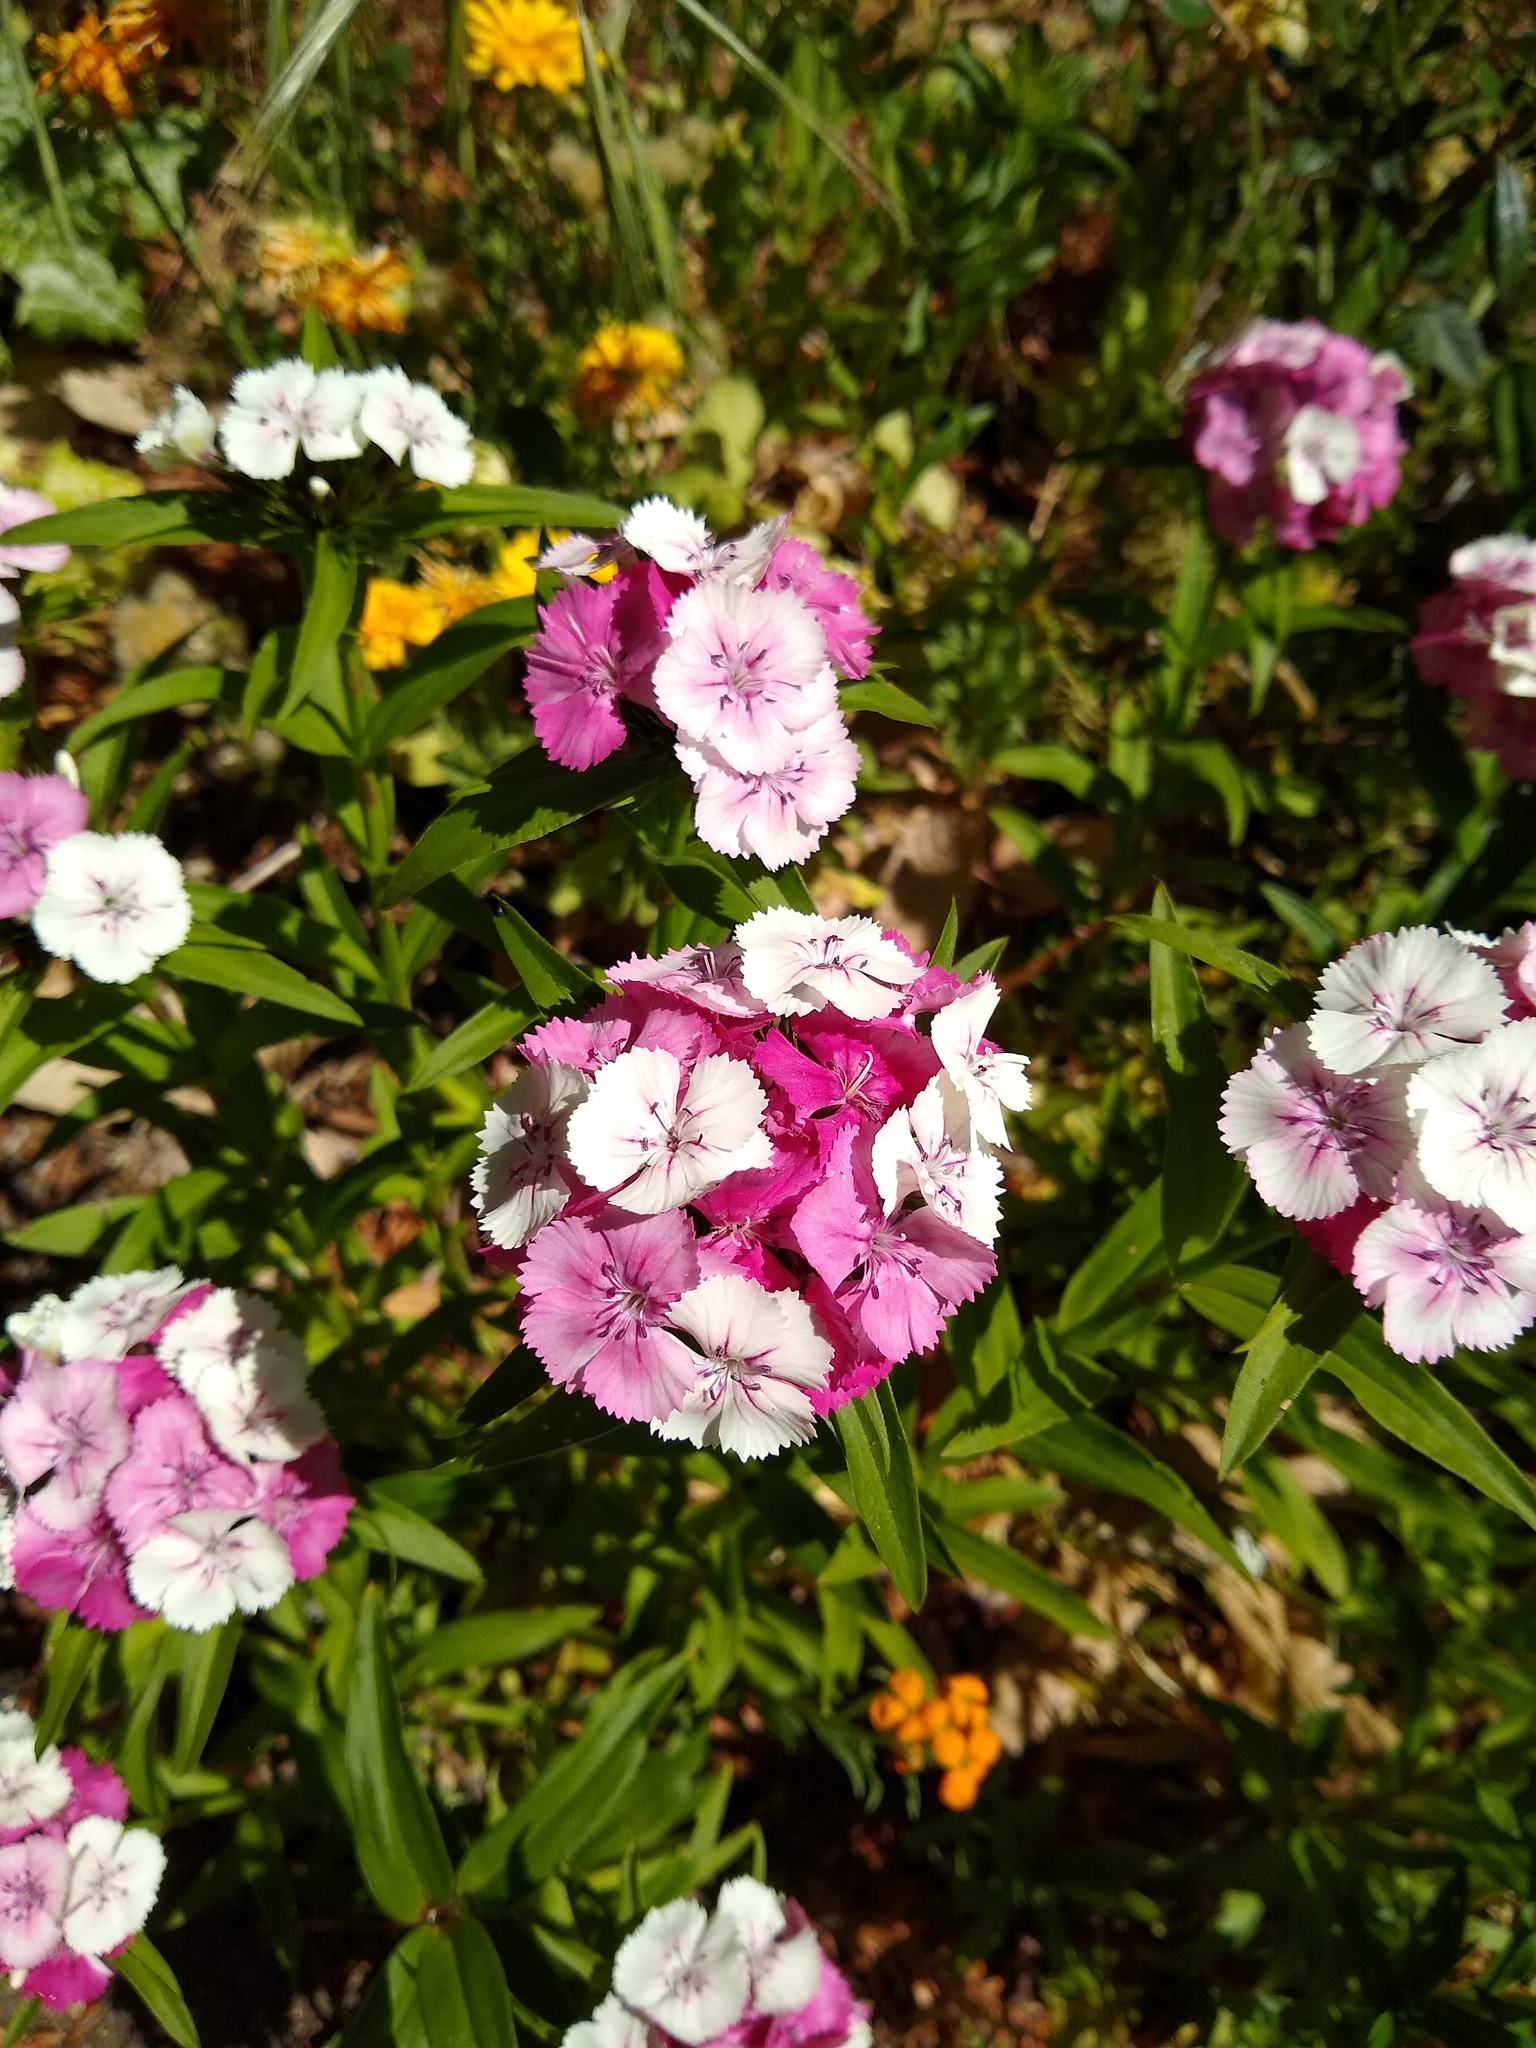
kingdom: Plantae
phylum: Tracheophyta
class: Magnoliopsida
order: Caryophyllales
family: Caryophyllaceae
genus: Dianthus
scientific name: Dianthus barbatus
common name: Sweet-william
